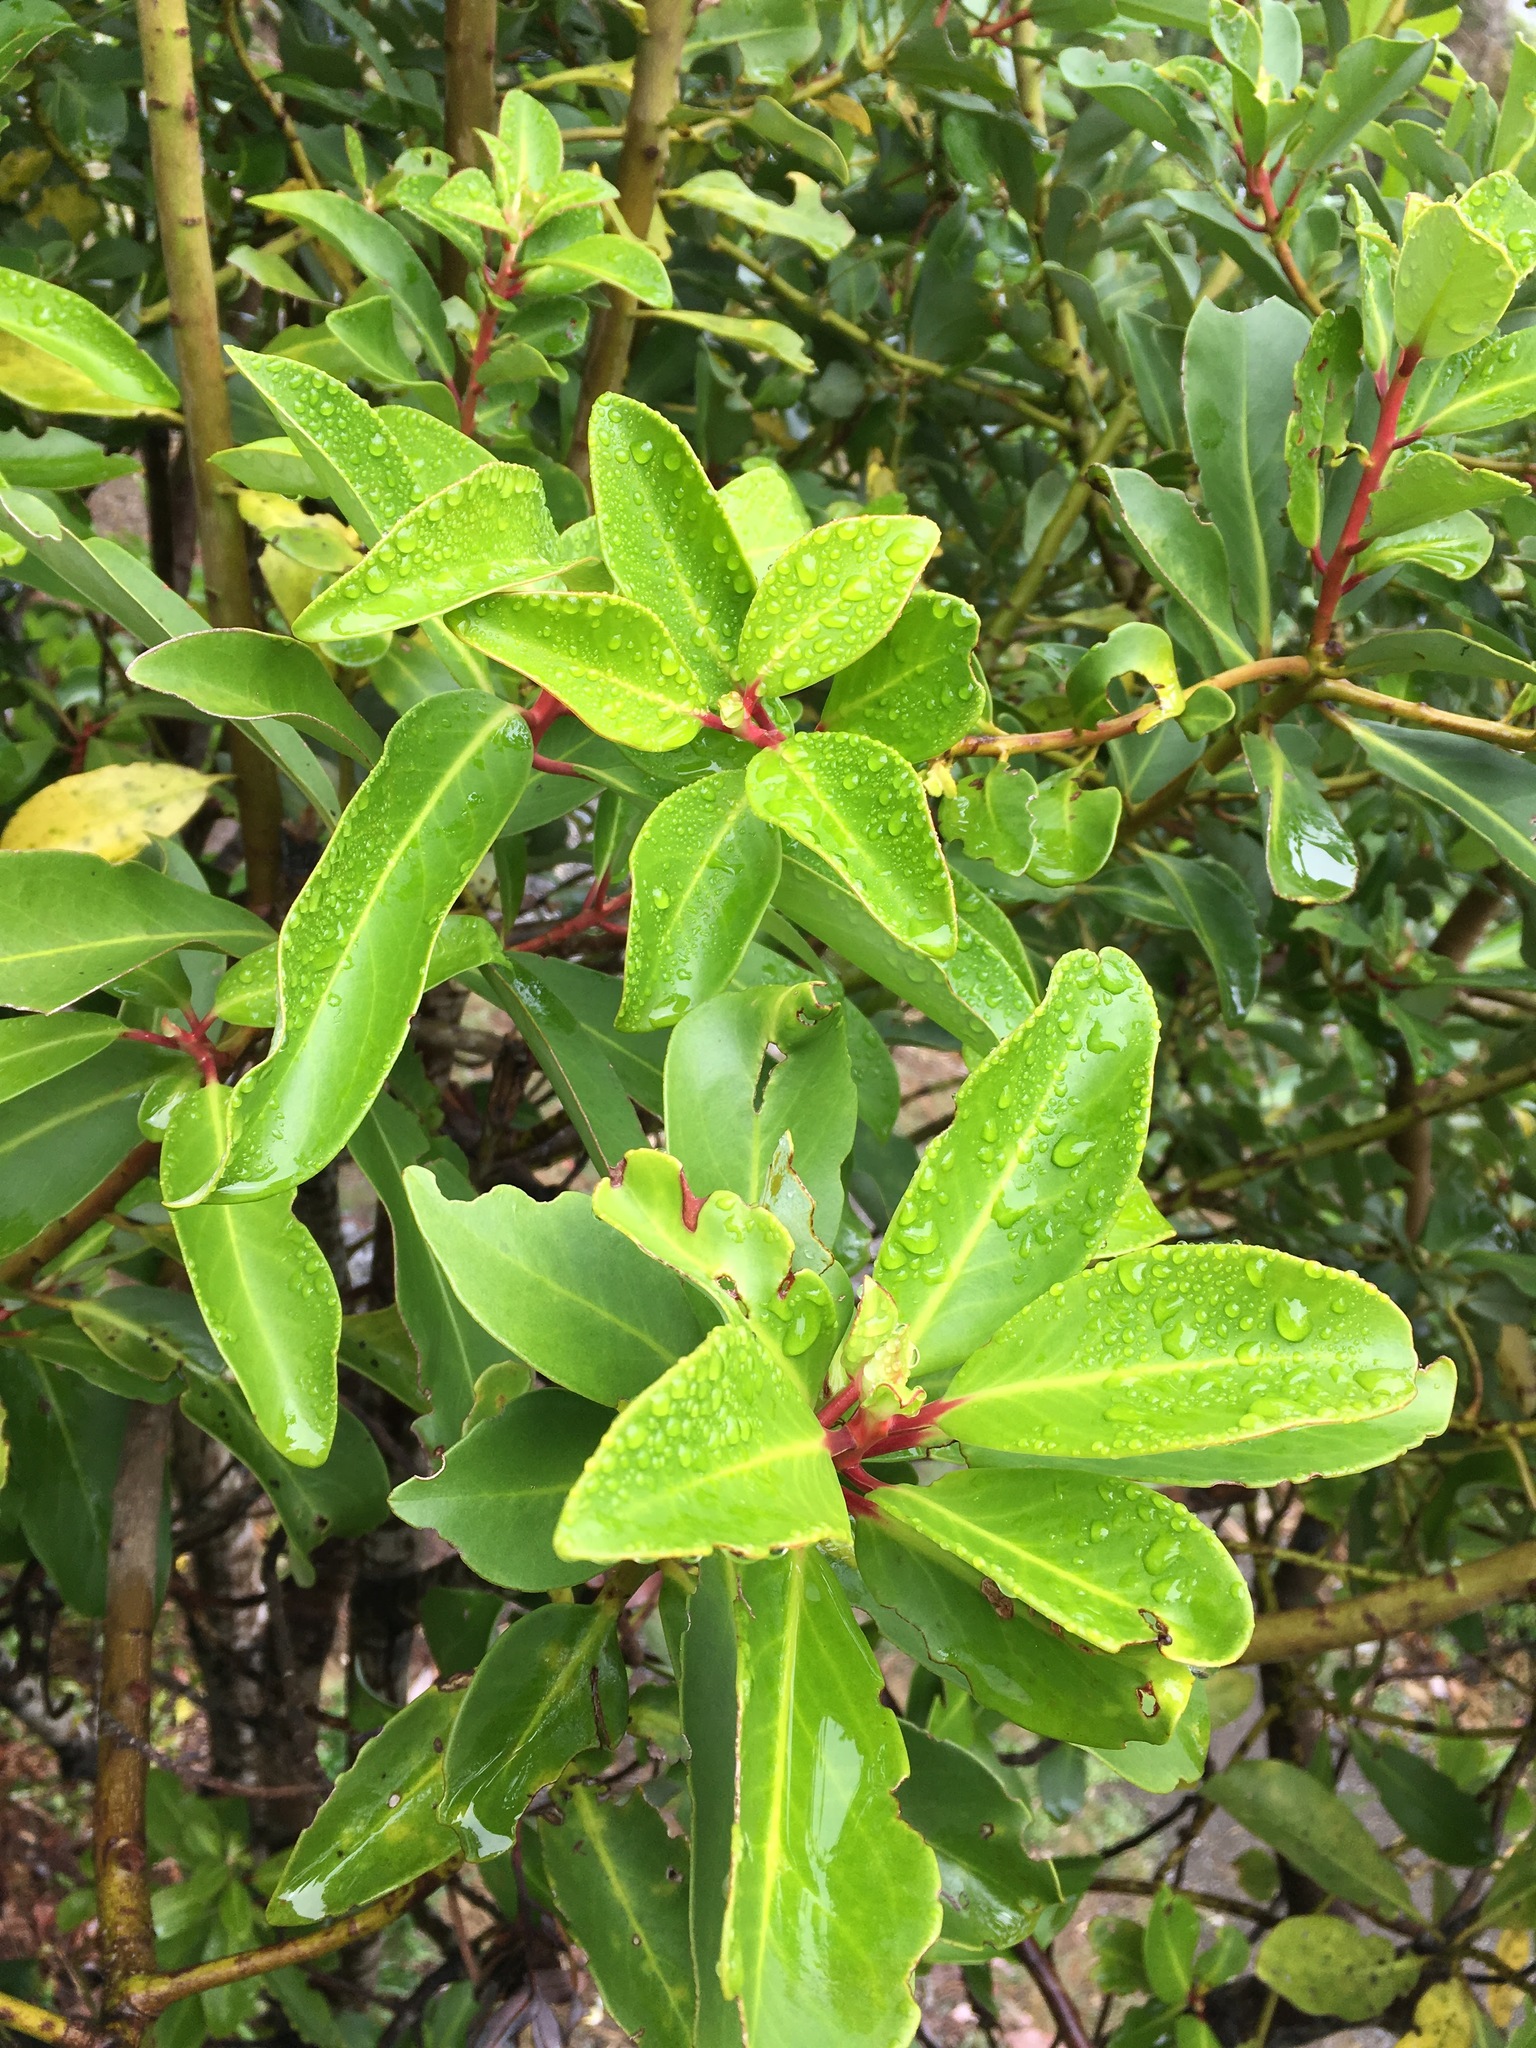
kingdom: Plantae
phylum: Tracheophyta
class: Magnoliopsida
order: Canellales
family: Winteraceae
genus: Drimys
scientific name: Drimys winteri
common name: Winter's-bark
